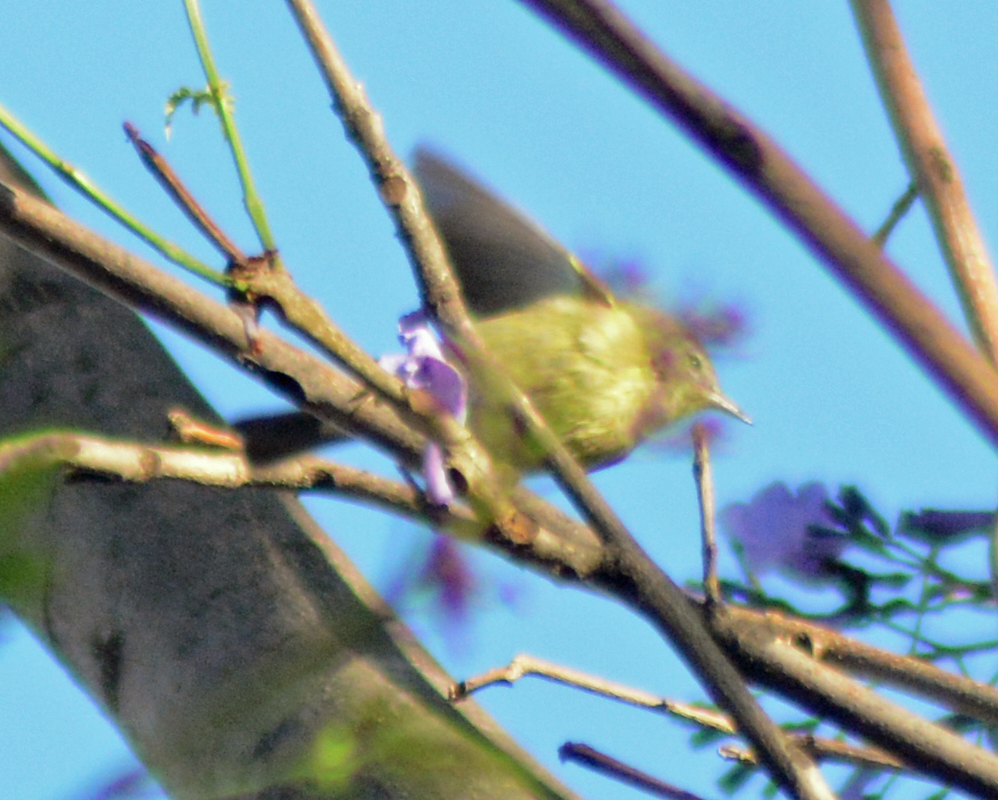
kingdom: Animalia
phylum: Chordata
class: Aves
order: Passeriformes
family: Parulidae
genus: Leiothlypis
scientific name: Leiothlypis celata
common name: Orange-crowned warbler
